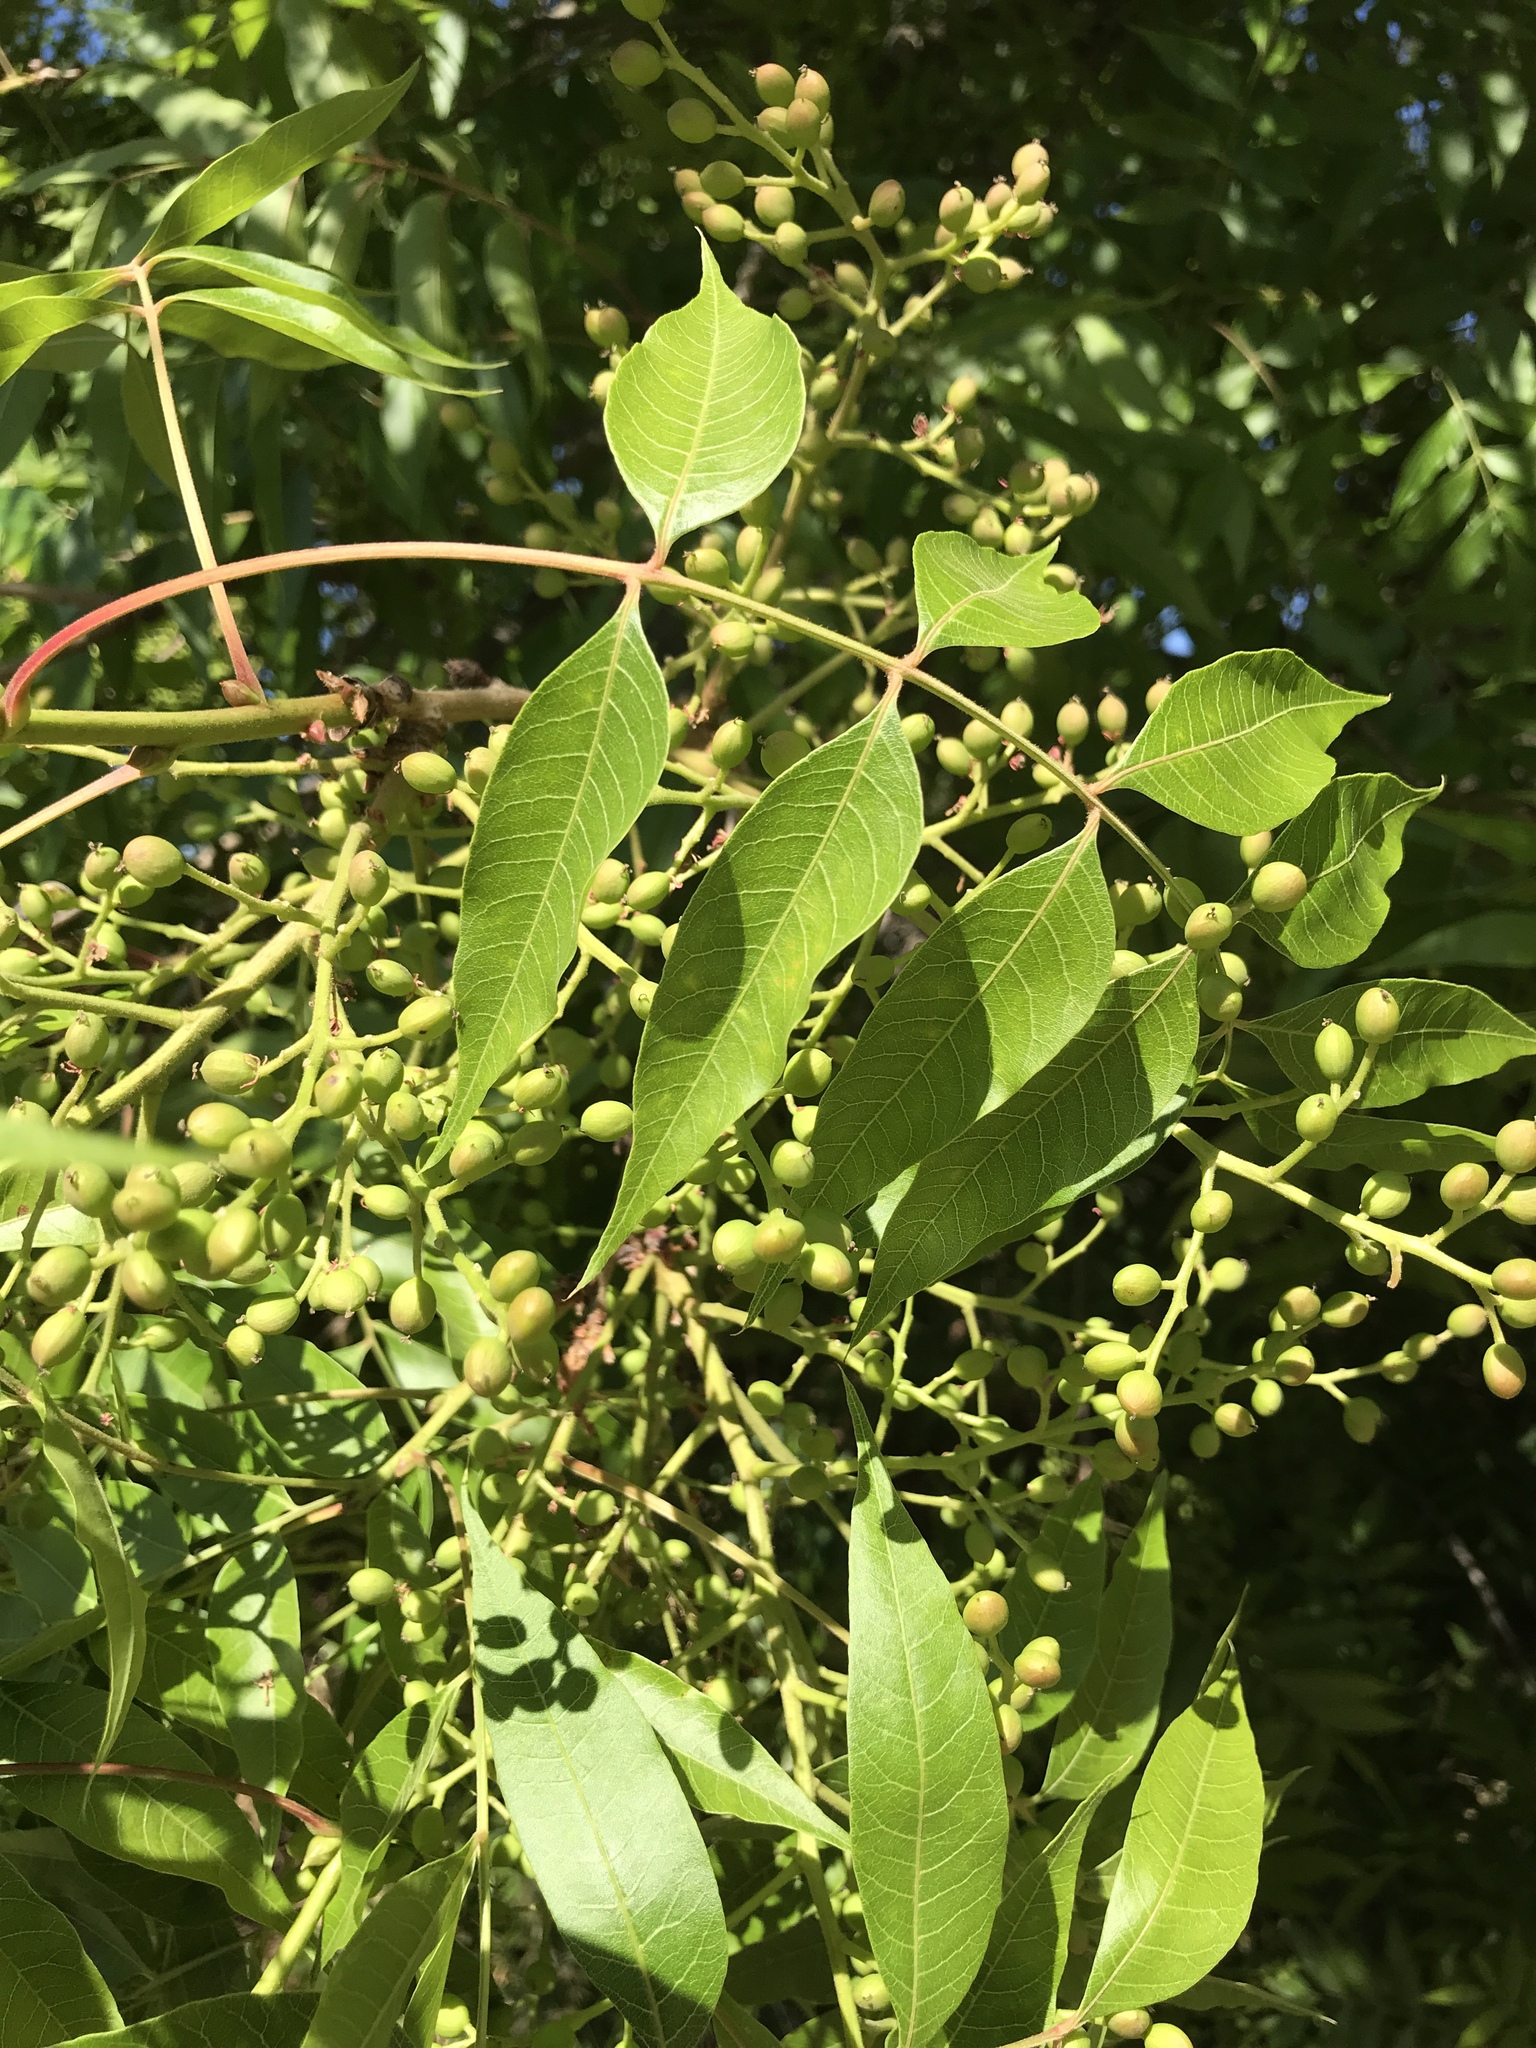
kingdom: Plantae
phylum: Tracheophyta
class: Magnoliopsida
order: Sapindales
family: Anacardiaceae
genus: Pistacia
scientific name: Pistacia chinensis
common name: Chinese pistache
